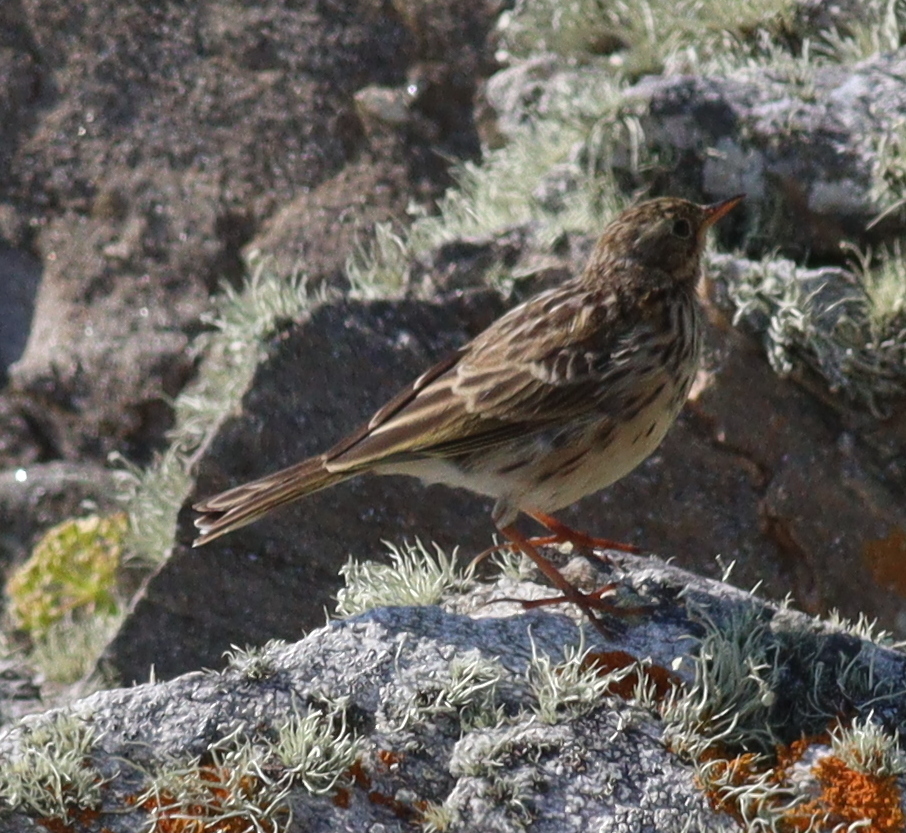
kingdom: Animalia
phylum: Chordata
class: Aves
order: Passeriformes
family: Motacillidae
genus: Anthus
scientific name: Anthus pratensis
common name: Meadow pipit
